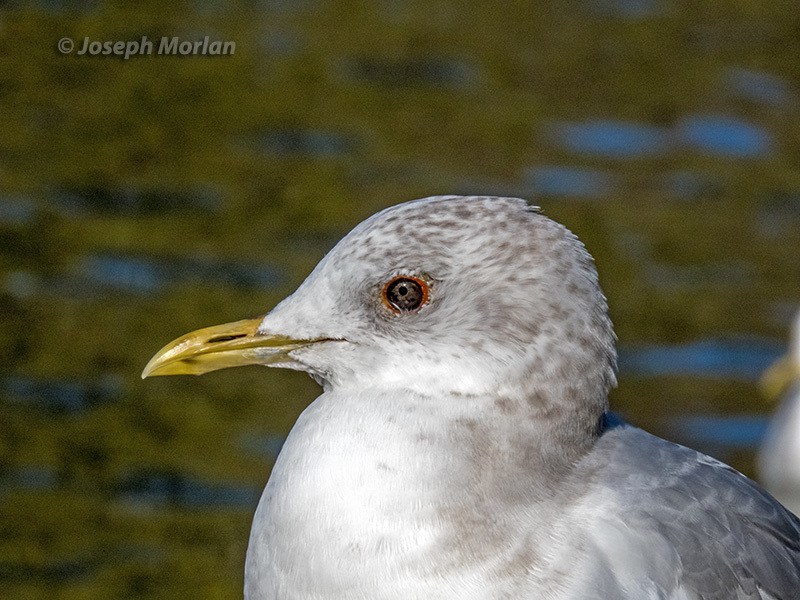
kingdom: Animalia
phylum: Chordata
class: Aves
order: Charadriiformes
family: Laridae
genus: Larus
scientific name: Larus brachyrhynchus
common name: Short-billed gull
